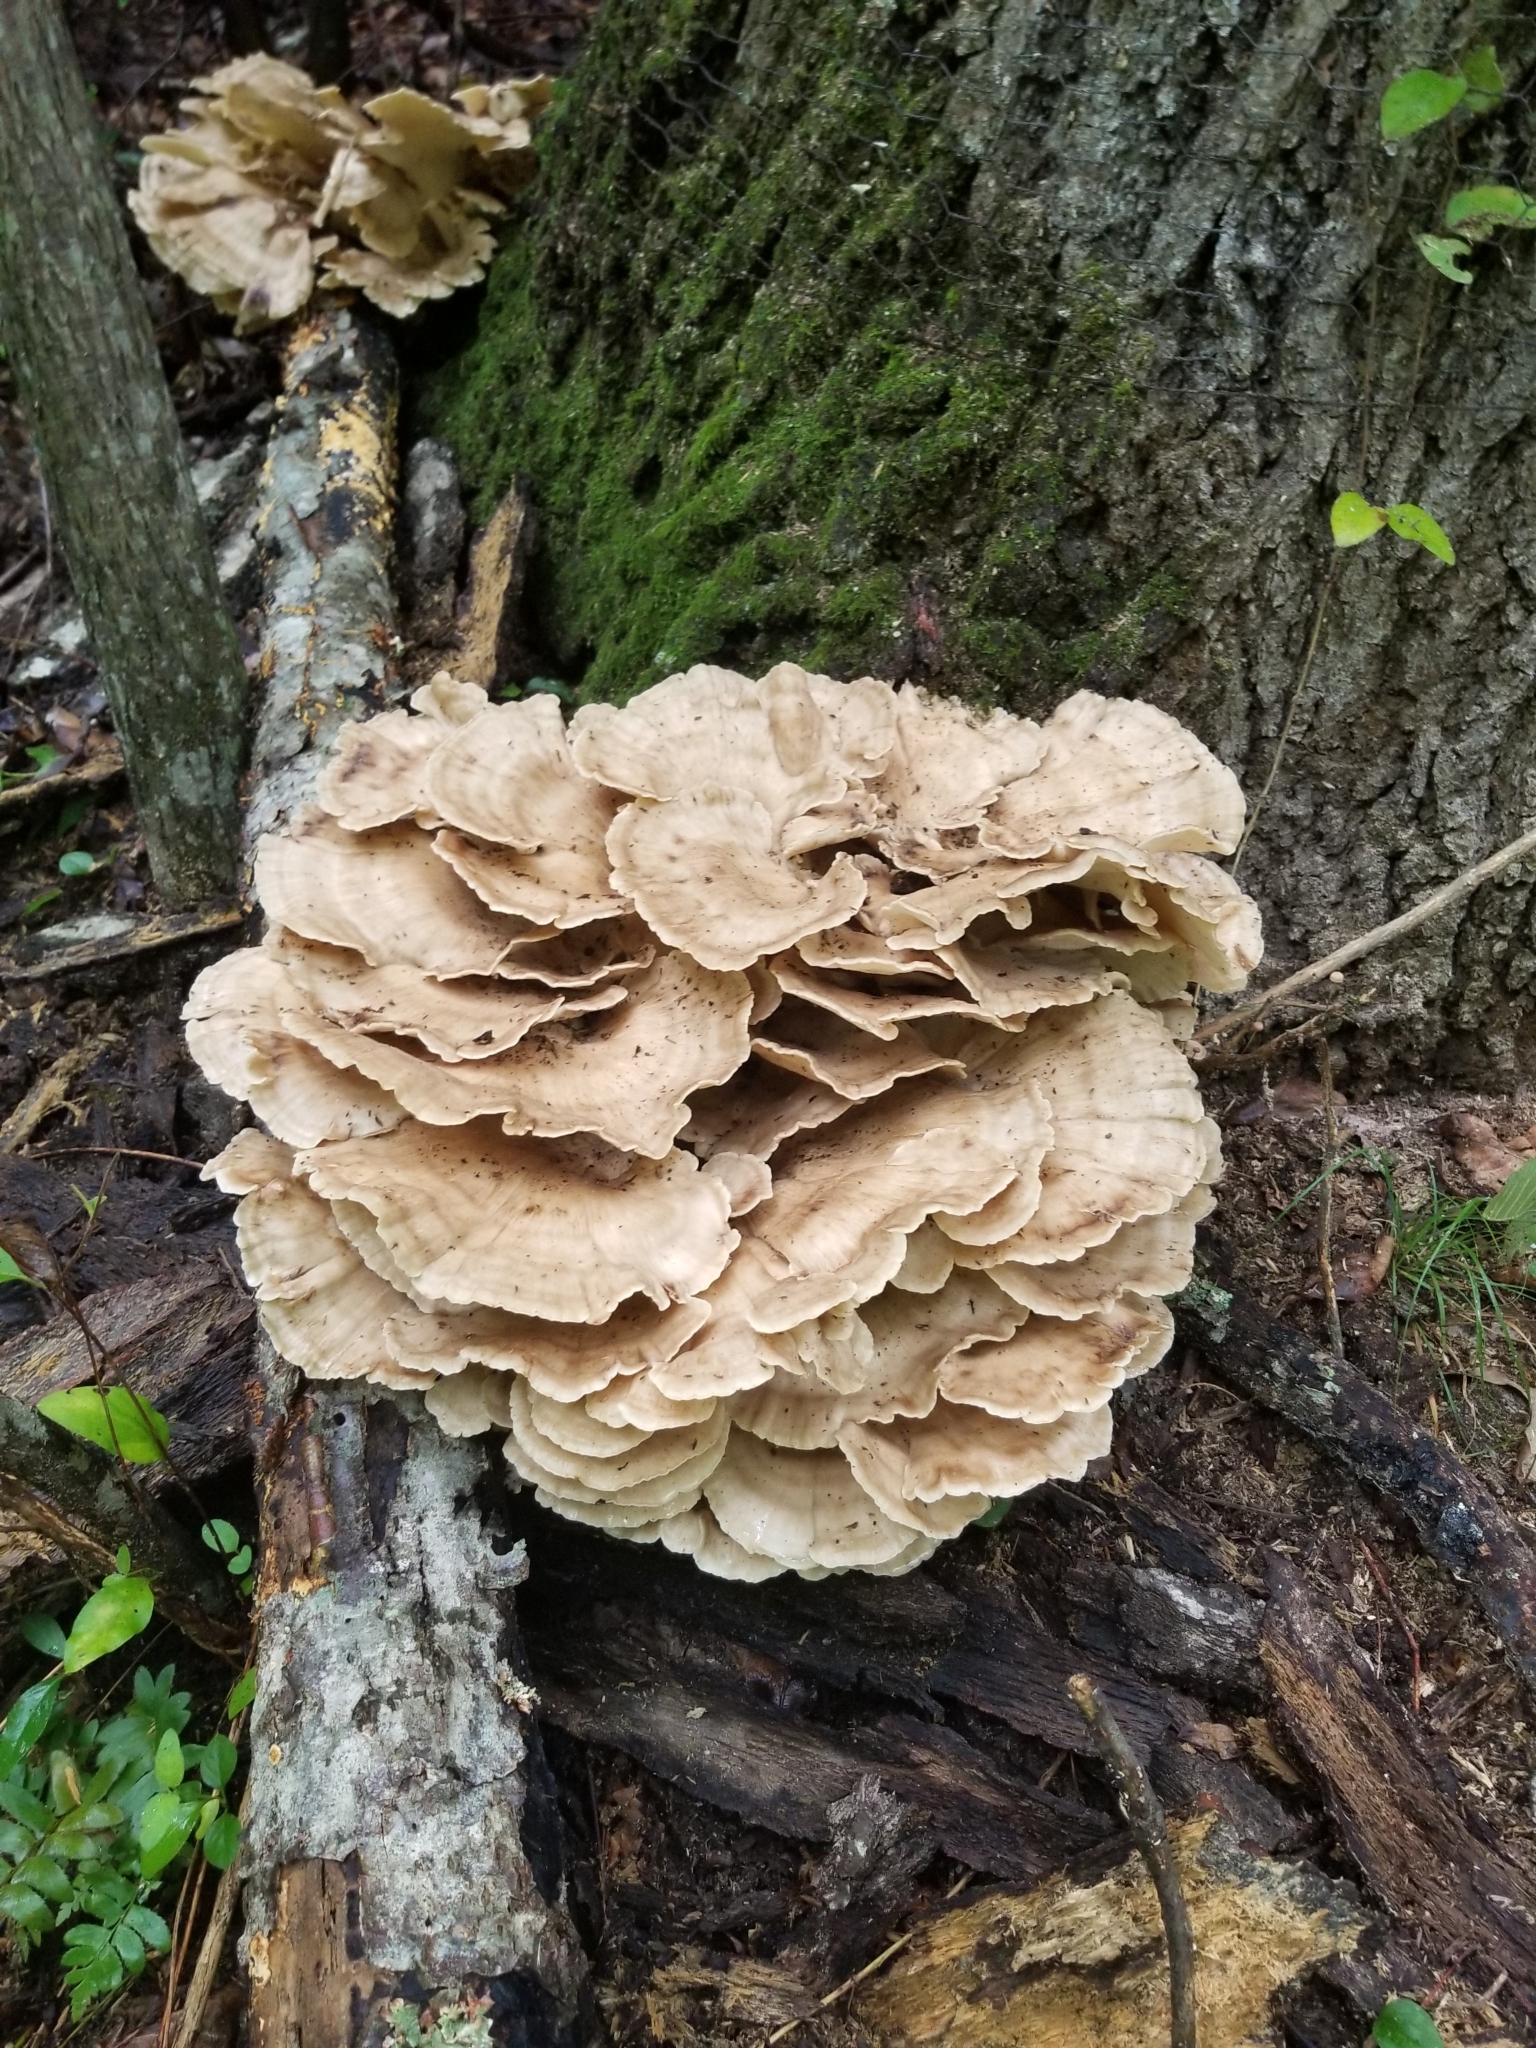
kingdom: Fungi
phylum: Basidiomycota
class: Agaricomycetes
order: Polyporales
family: Meripilaceae
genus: Meripilus
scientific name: Meripilus sumstinei
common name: Black-staining polypore
